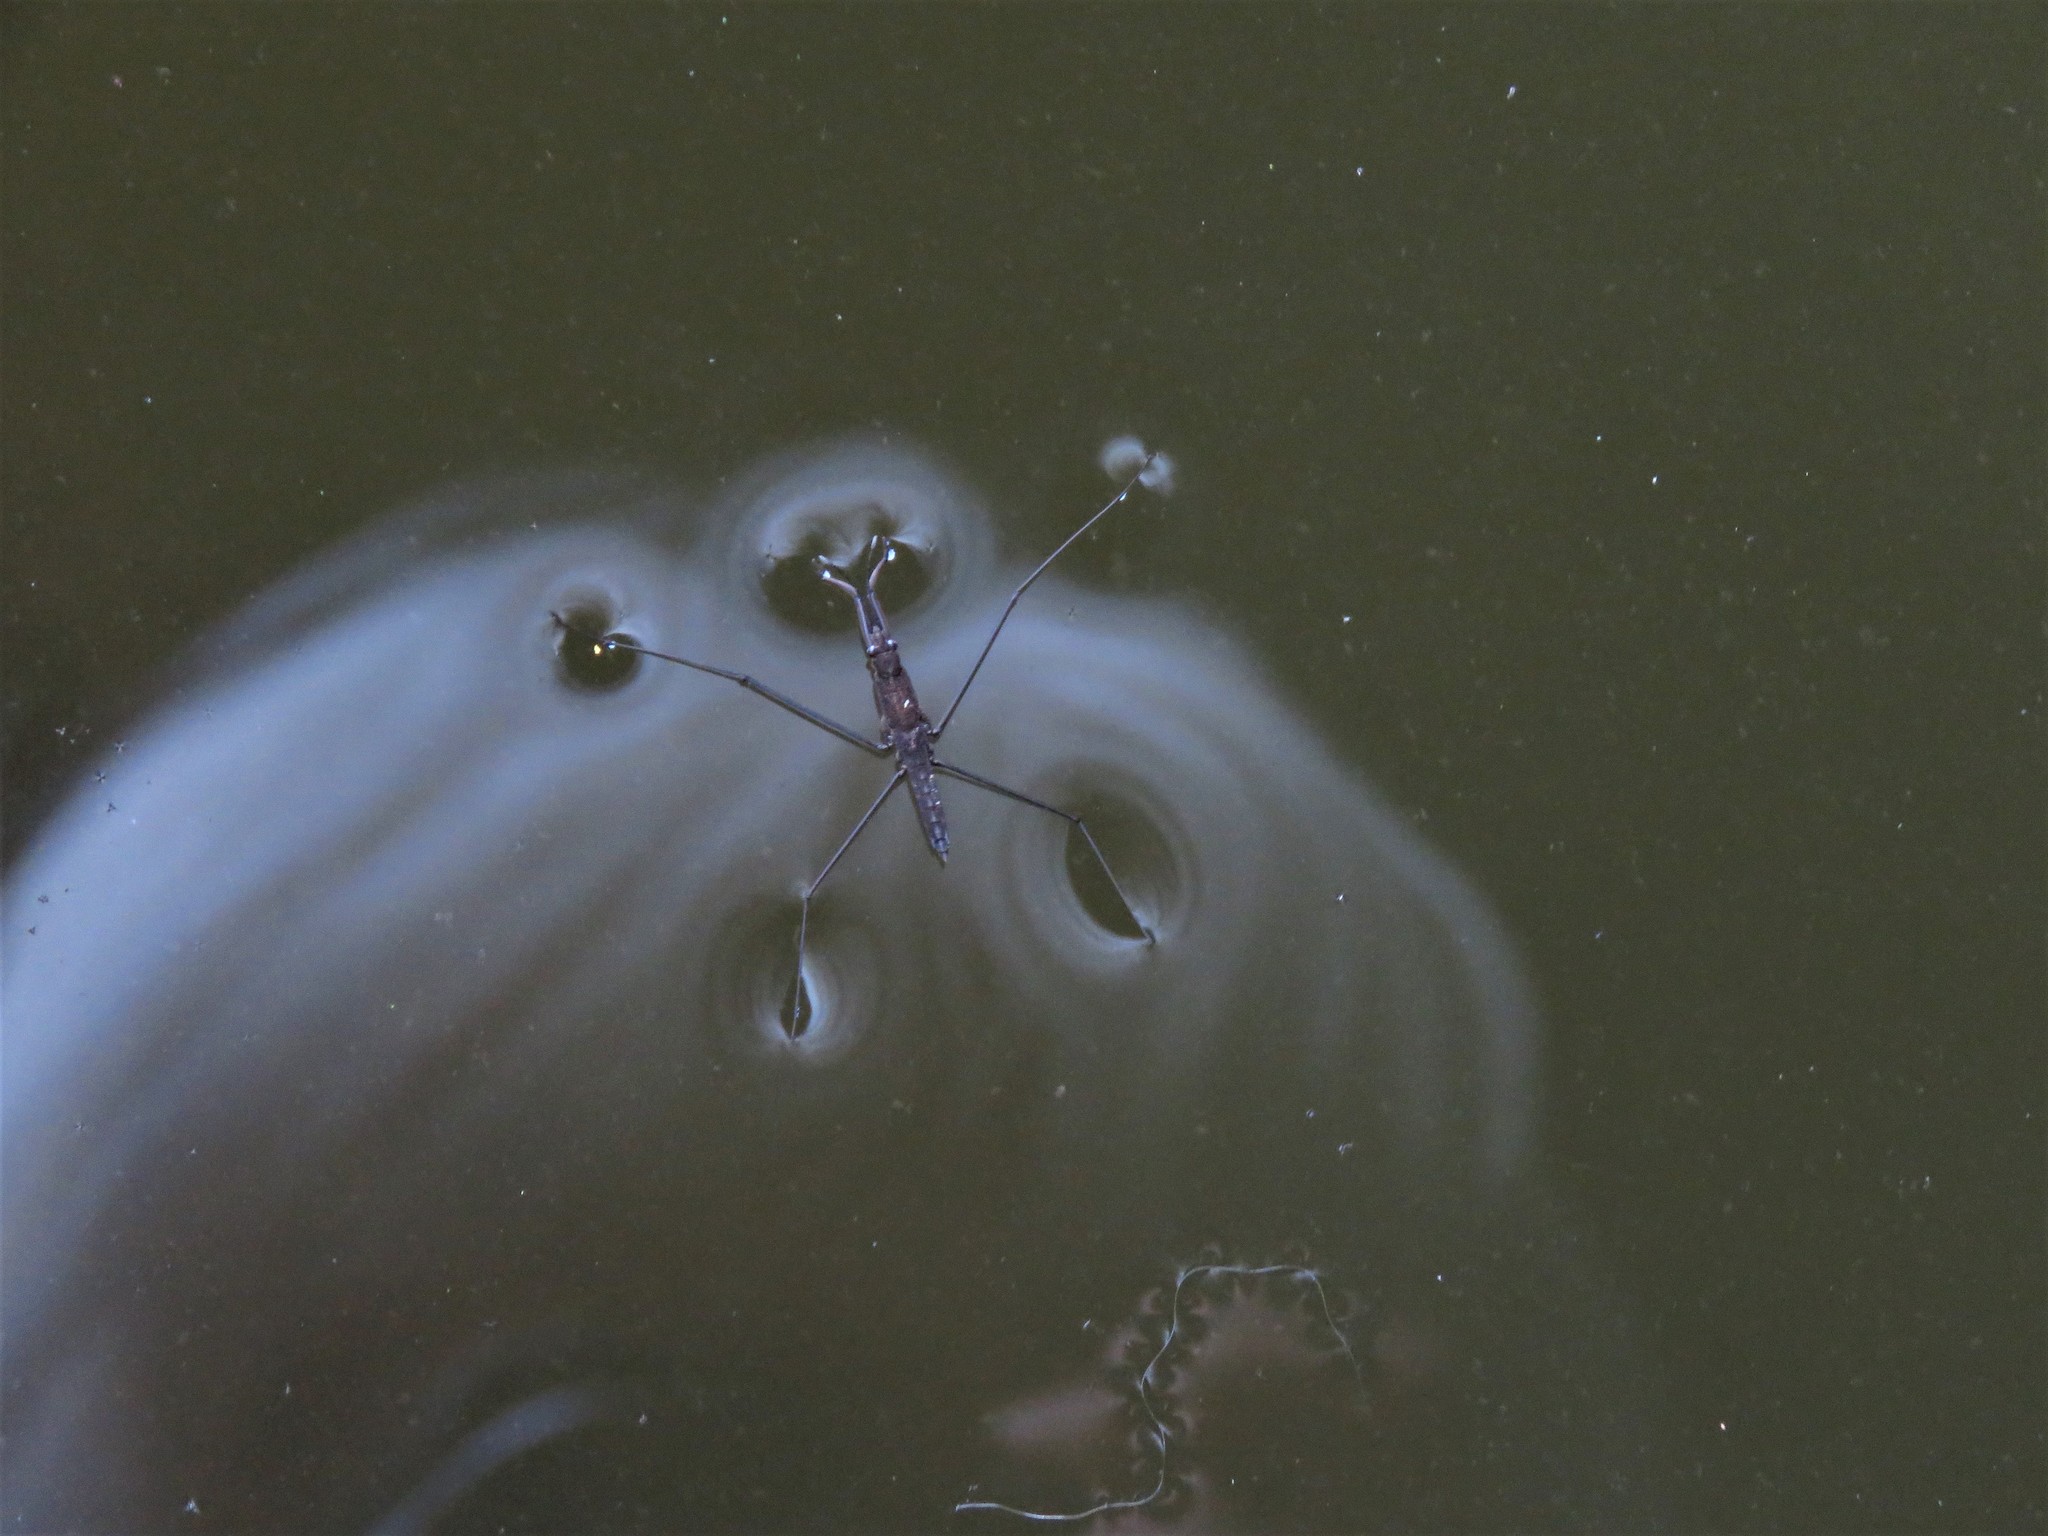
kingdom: Animalia
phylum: Arthropoda
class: Insecta
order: Hemiptera
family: Gerridae
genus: Aquarius
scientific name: Aquarius najas
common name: River skater
